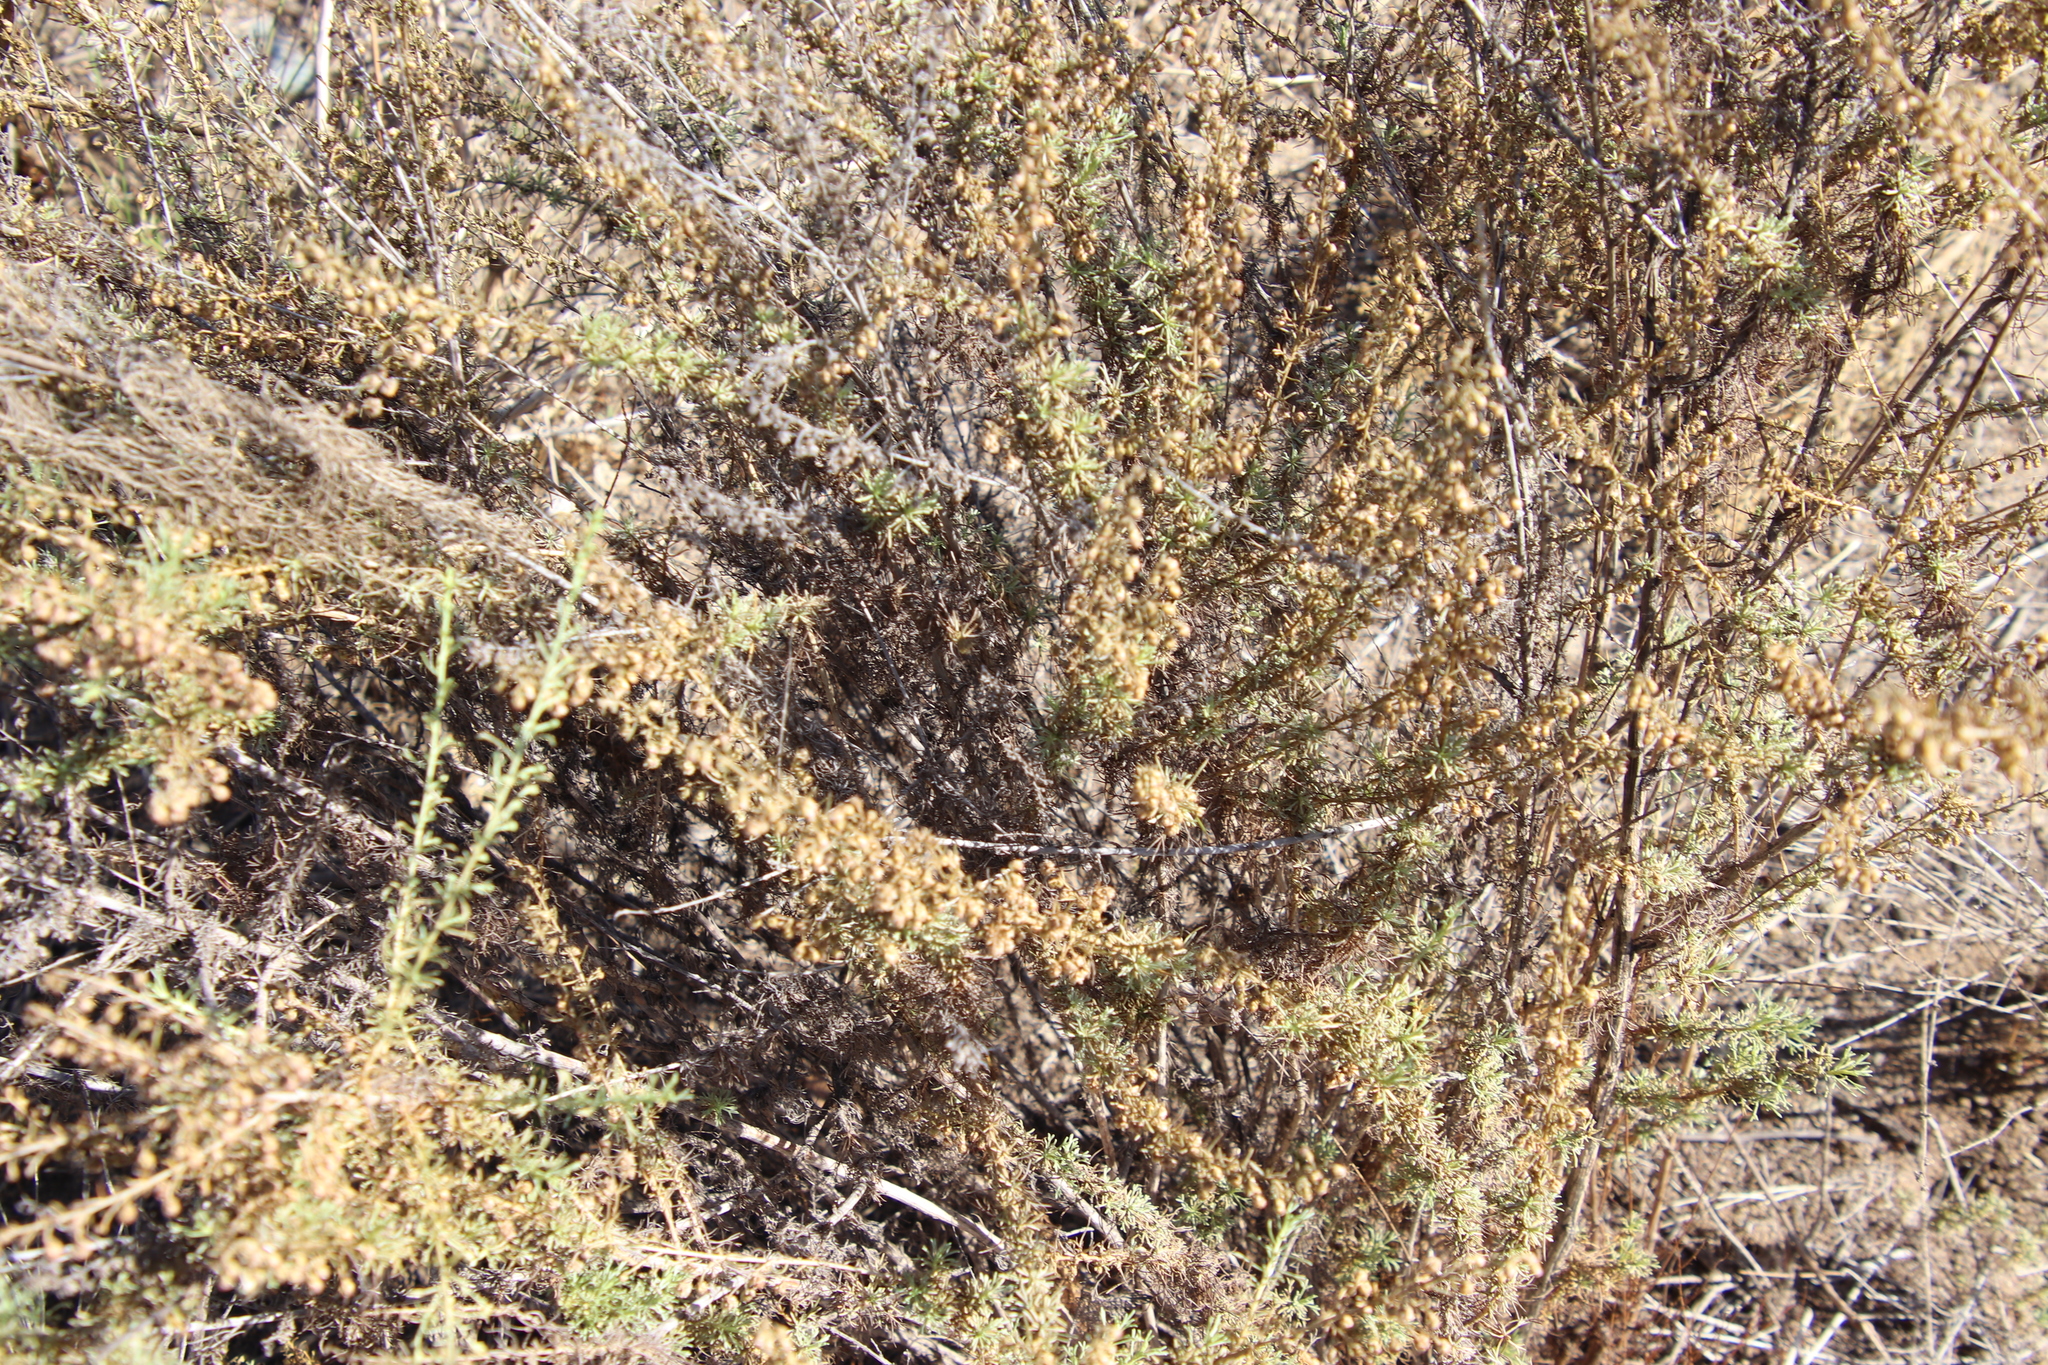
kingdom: Plantae
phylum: Tracheophyta
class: Magnoliopsida
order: Asterales
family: Asteraceae
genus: Artemisia
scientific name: Artemisia californica
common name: California sagebrush
